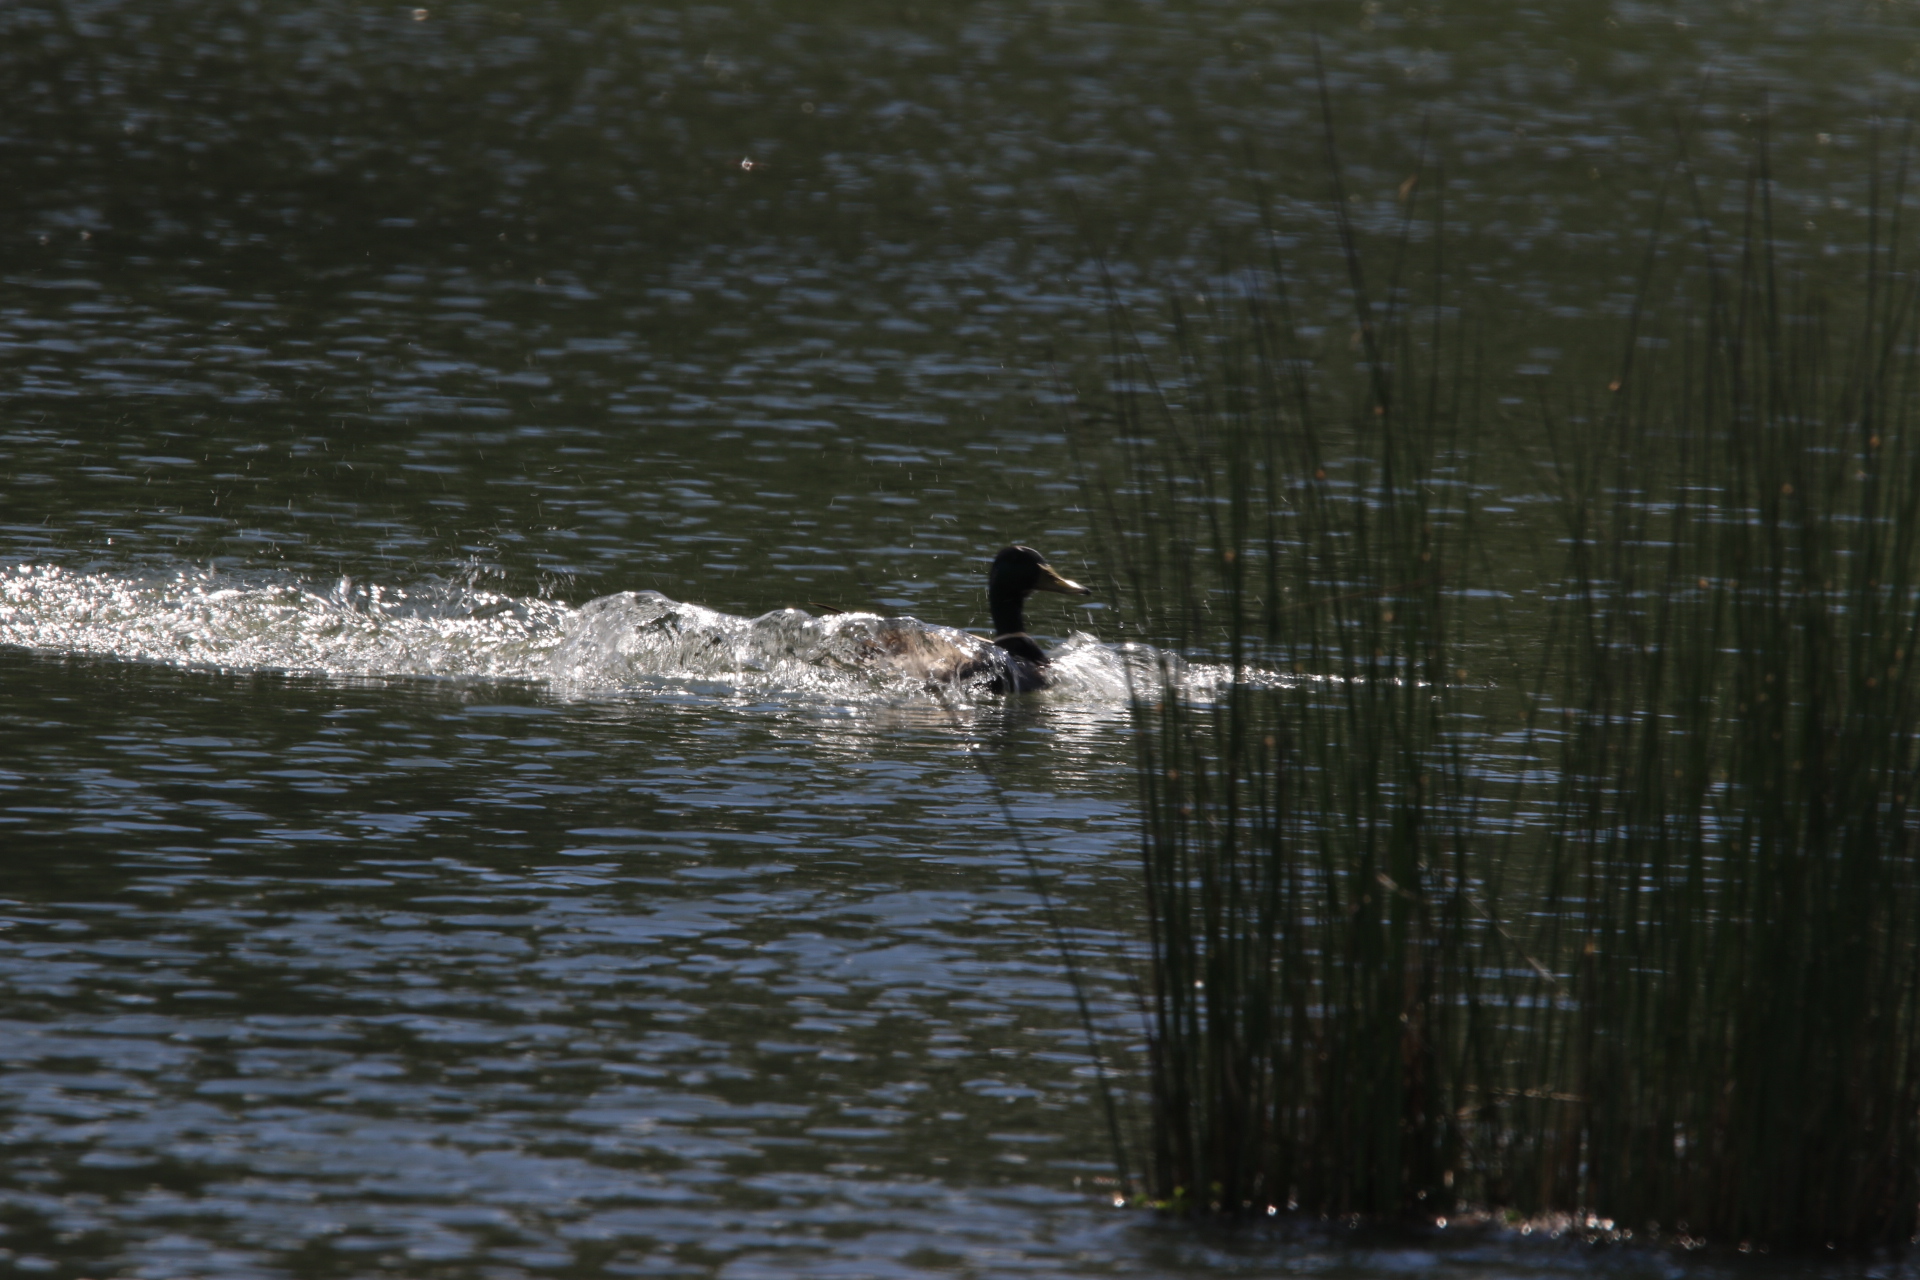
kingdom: Animalia
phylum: Chordata
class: Aves
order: Anseriformes
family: Anatidae
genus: Anas
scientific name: Anas platyrhynchos
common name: Mallard
